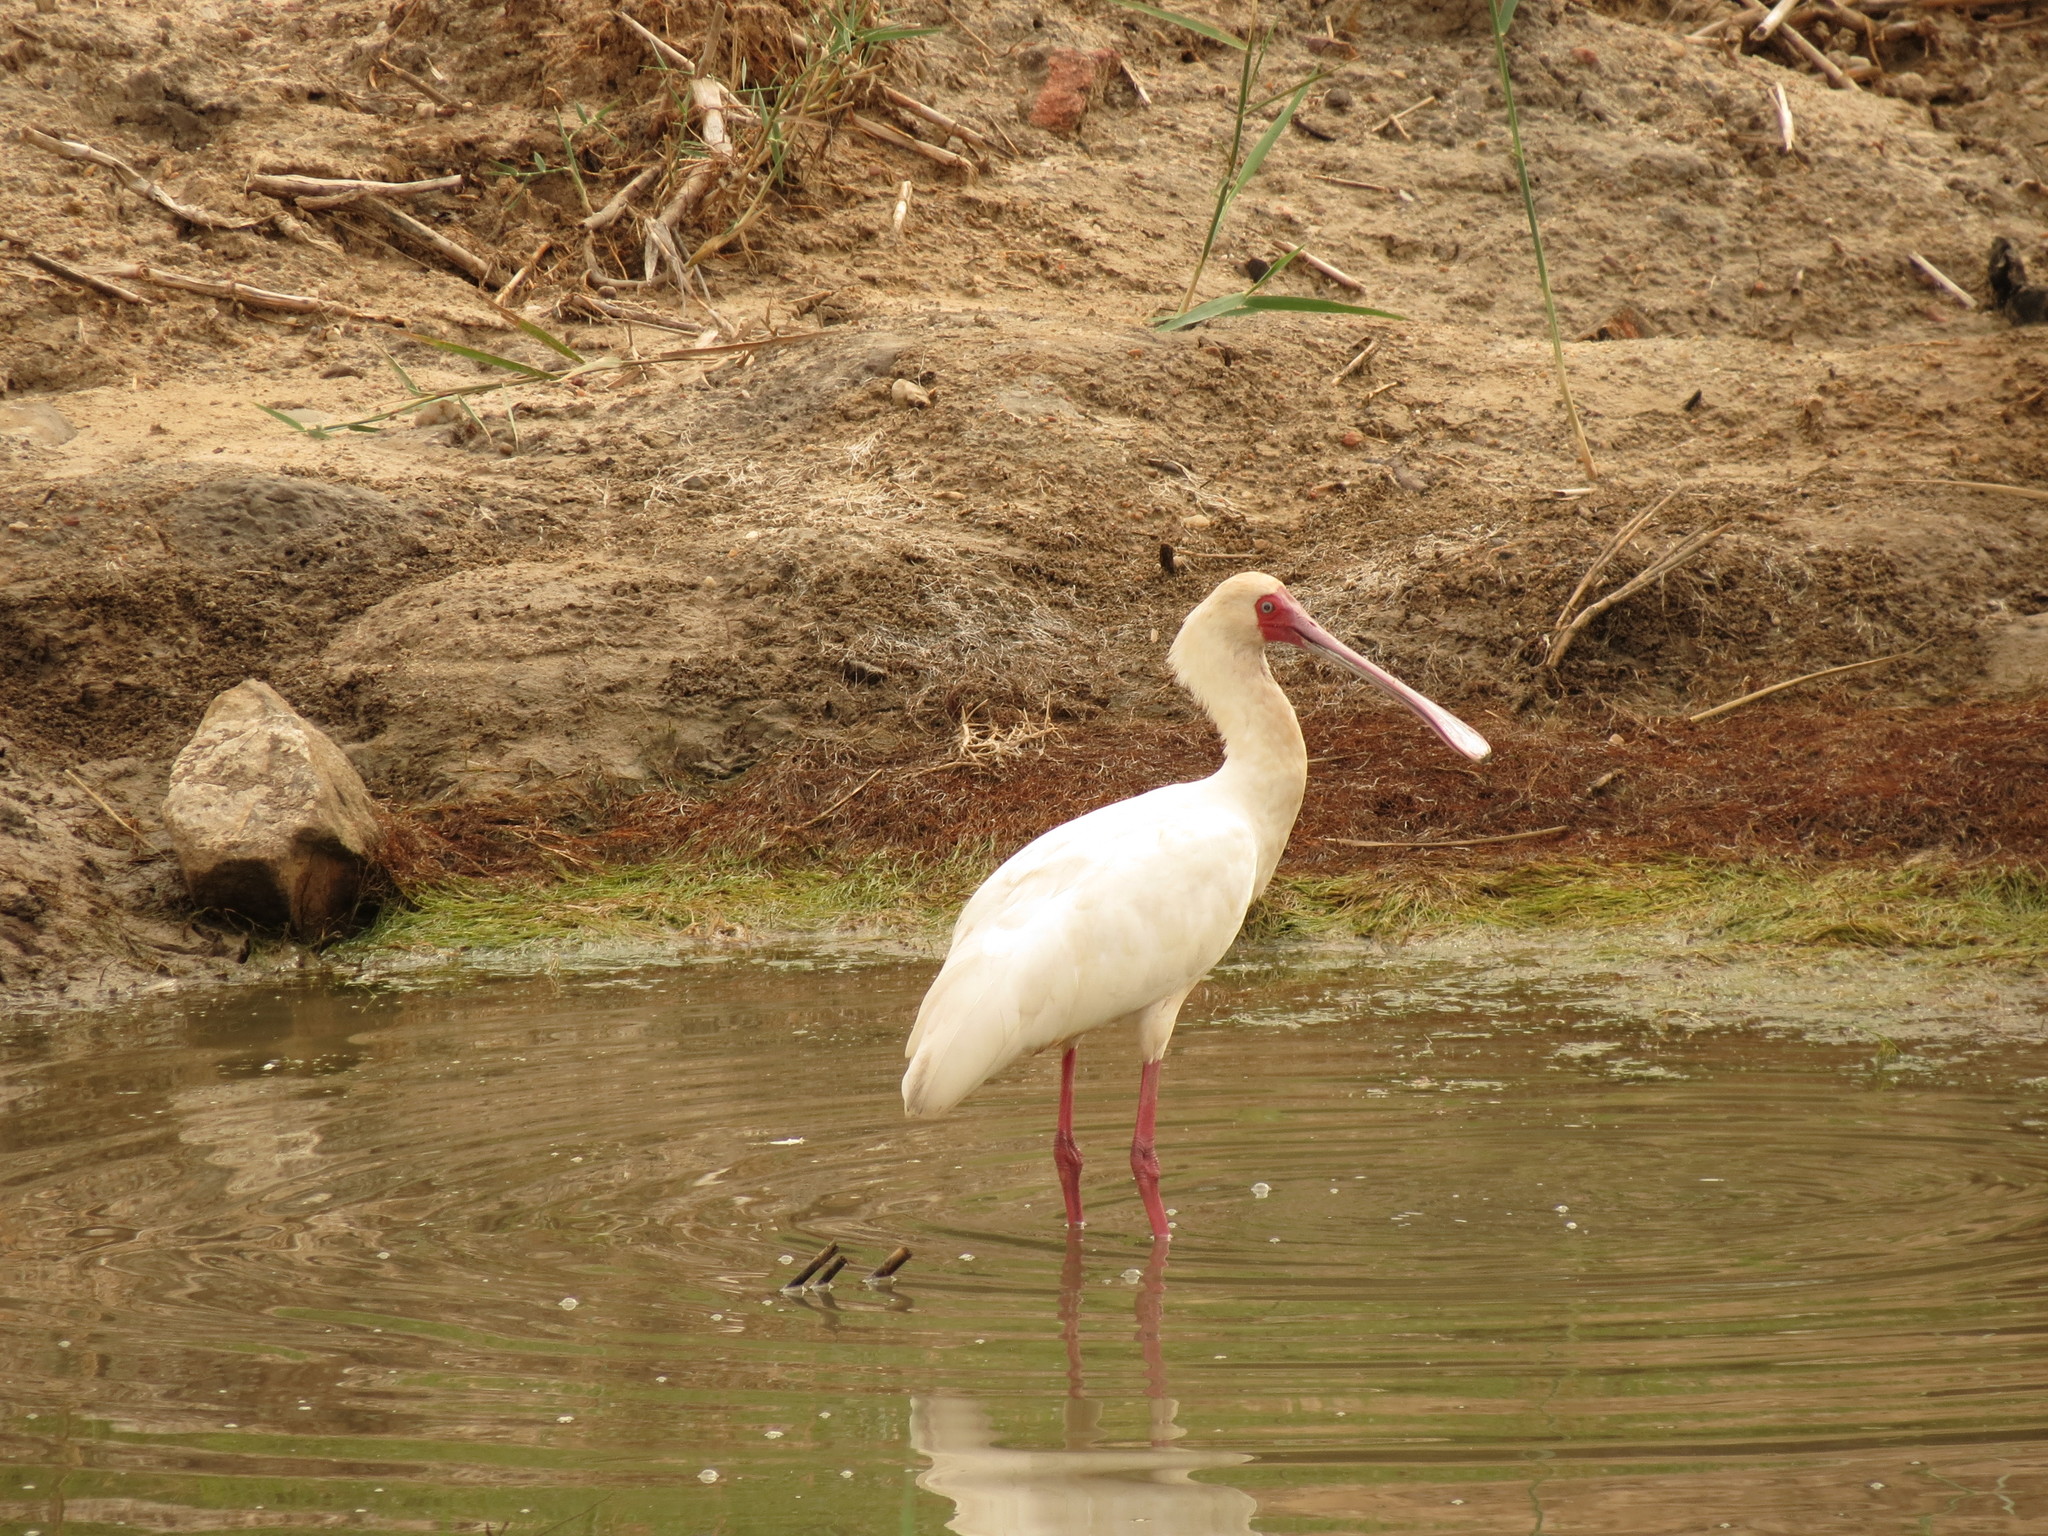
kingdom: Animalia
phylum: Chordata
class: Aves
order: Pelecaniformes
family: Threskiornithidae
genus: Platalea
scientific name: Platalea alba
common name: African spoonbill
